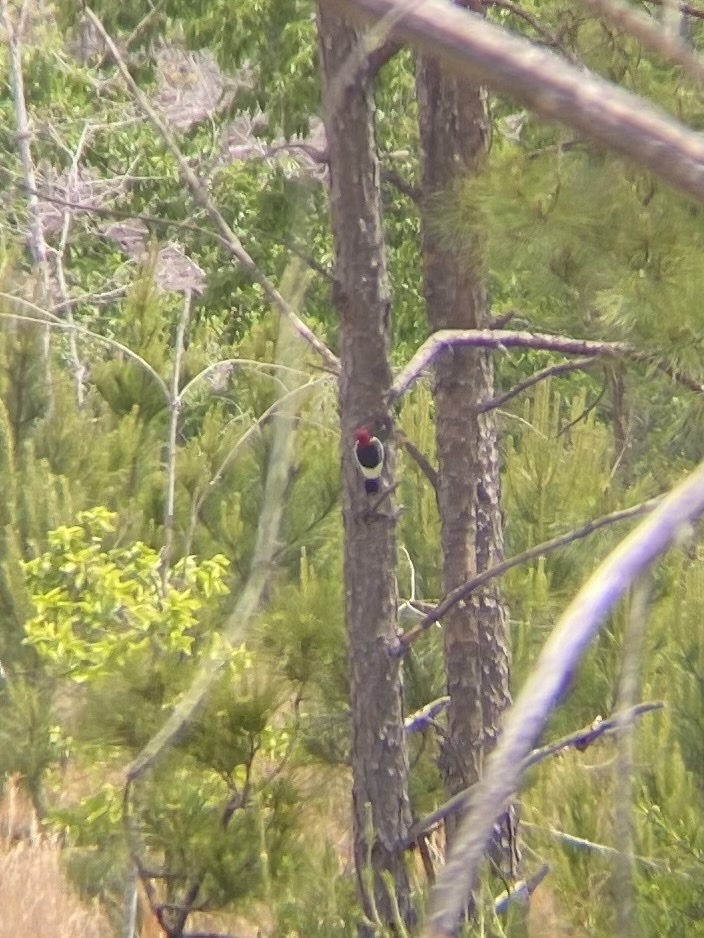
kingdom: Animalia
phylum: Chordata
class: Aves
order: Piciformes
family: Picidae
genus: Melanerpes
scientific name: Melanerpes erythrocephalus
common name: Red-headed woodpecker
